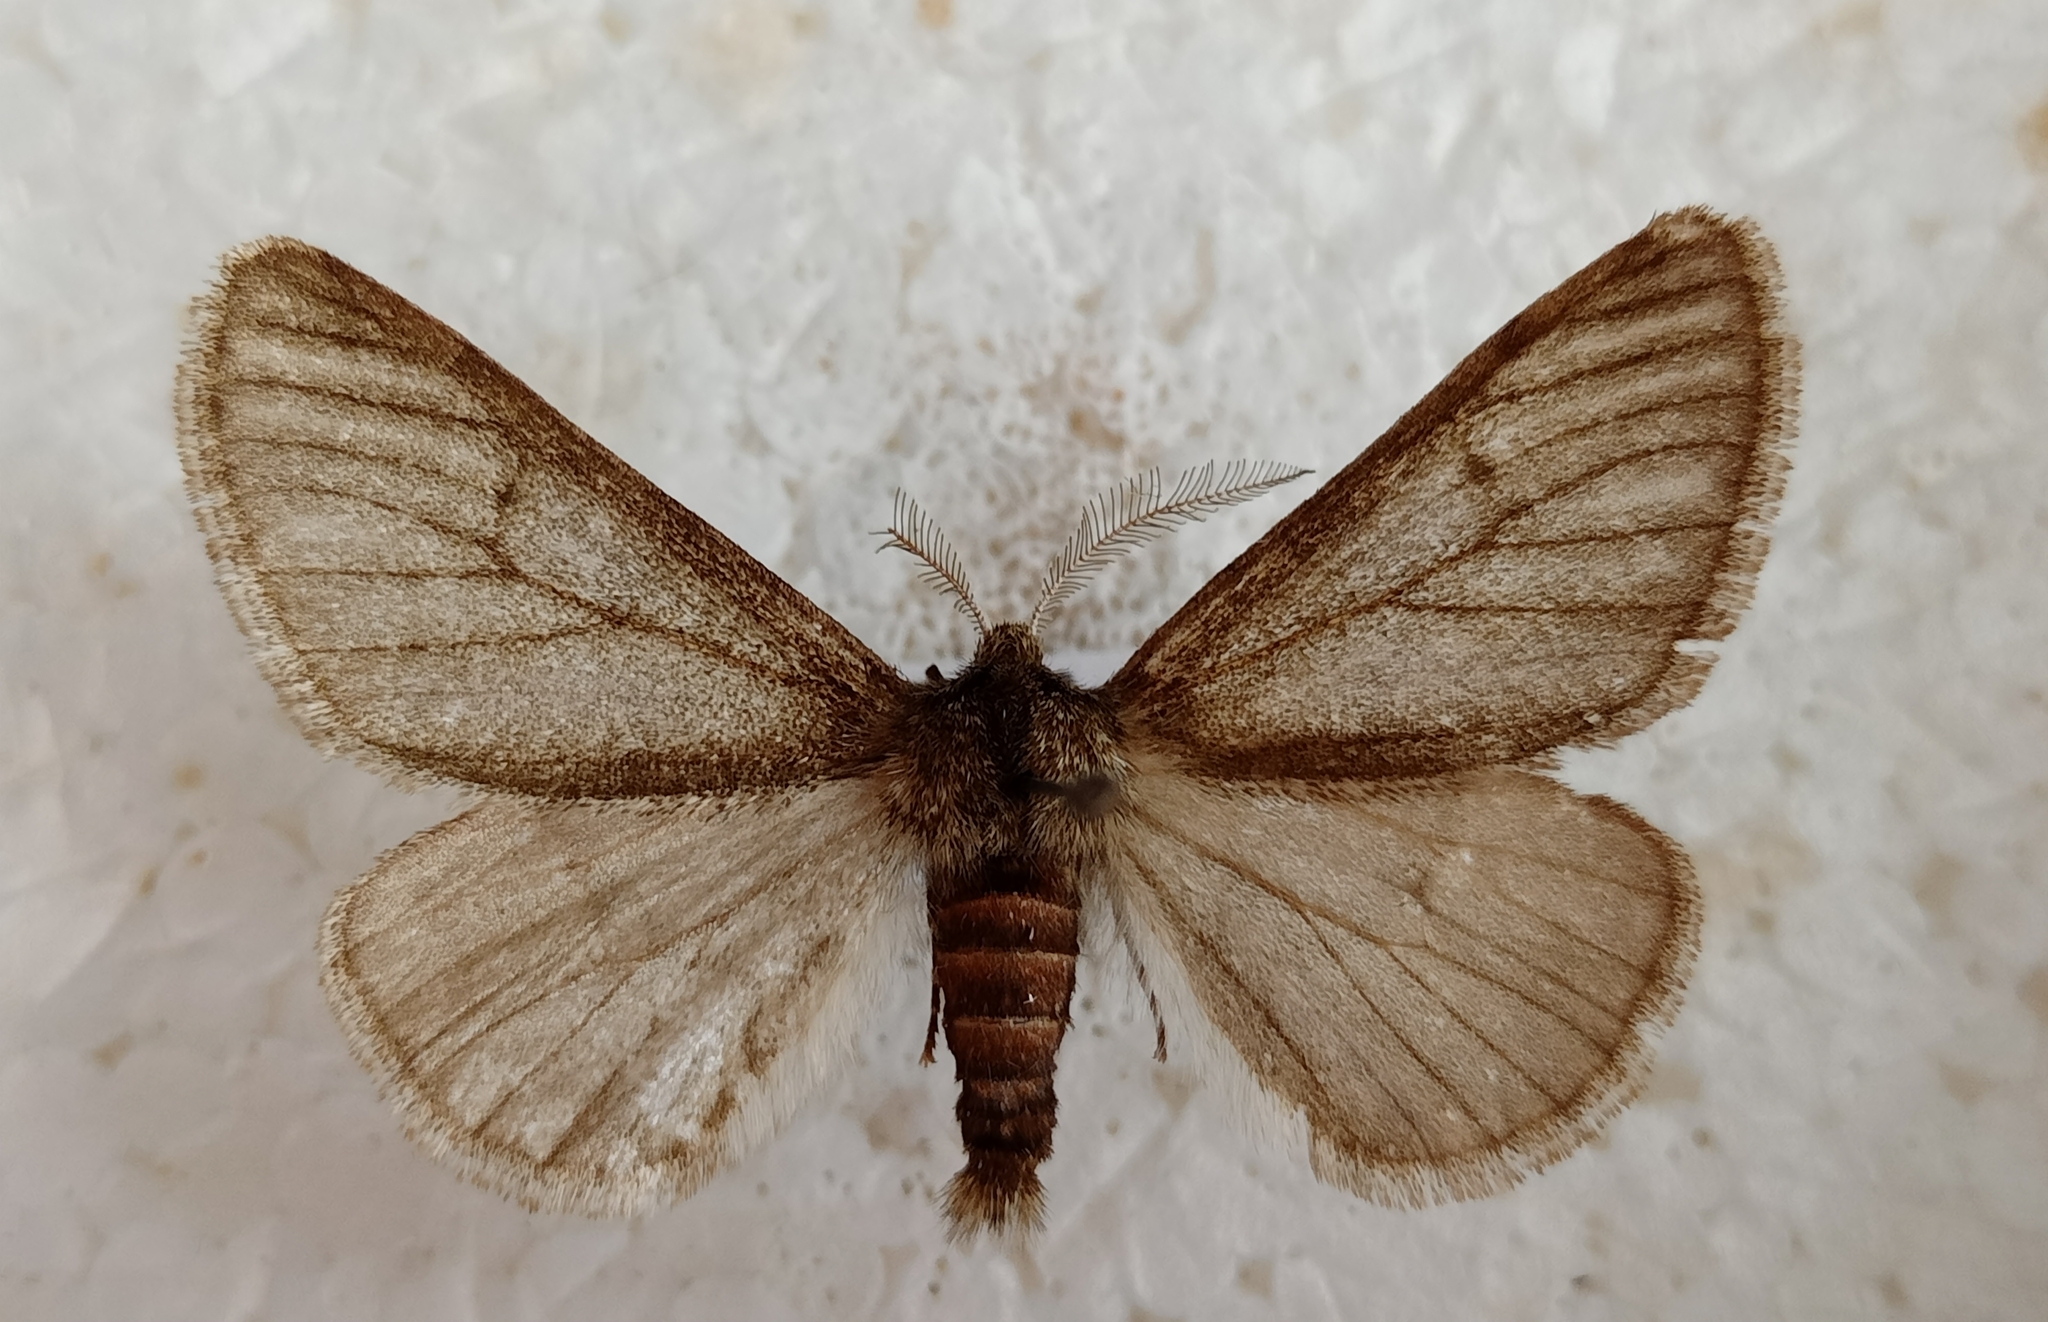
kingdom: Animalia
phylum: Arthropoda
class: Insecta
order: Lepidoptera
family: Geometridae
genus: Phigalia
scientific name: Phigalia pilosaria
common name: Pale brindled beauty
